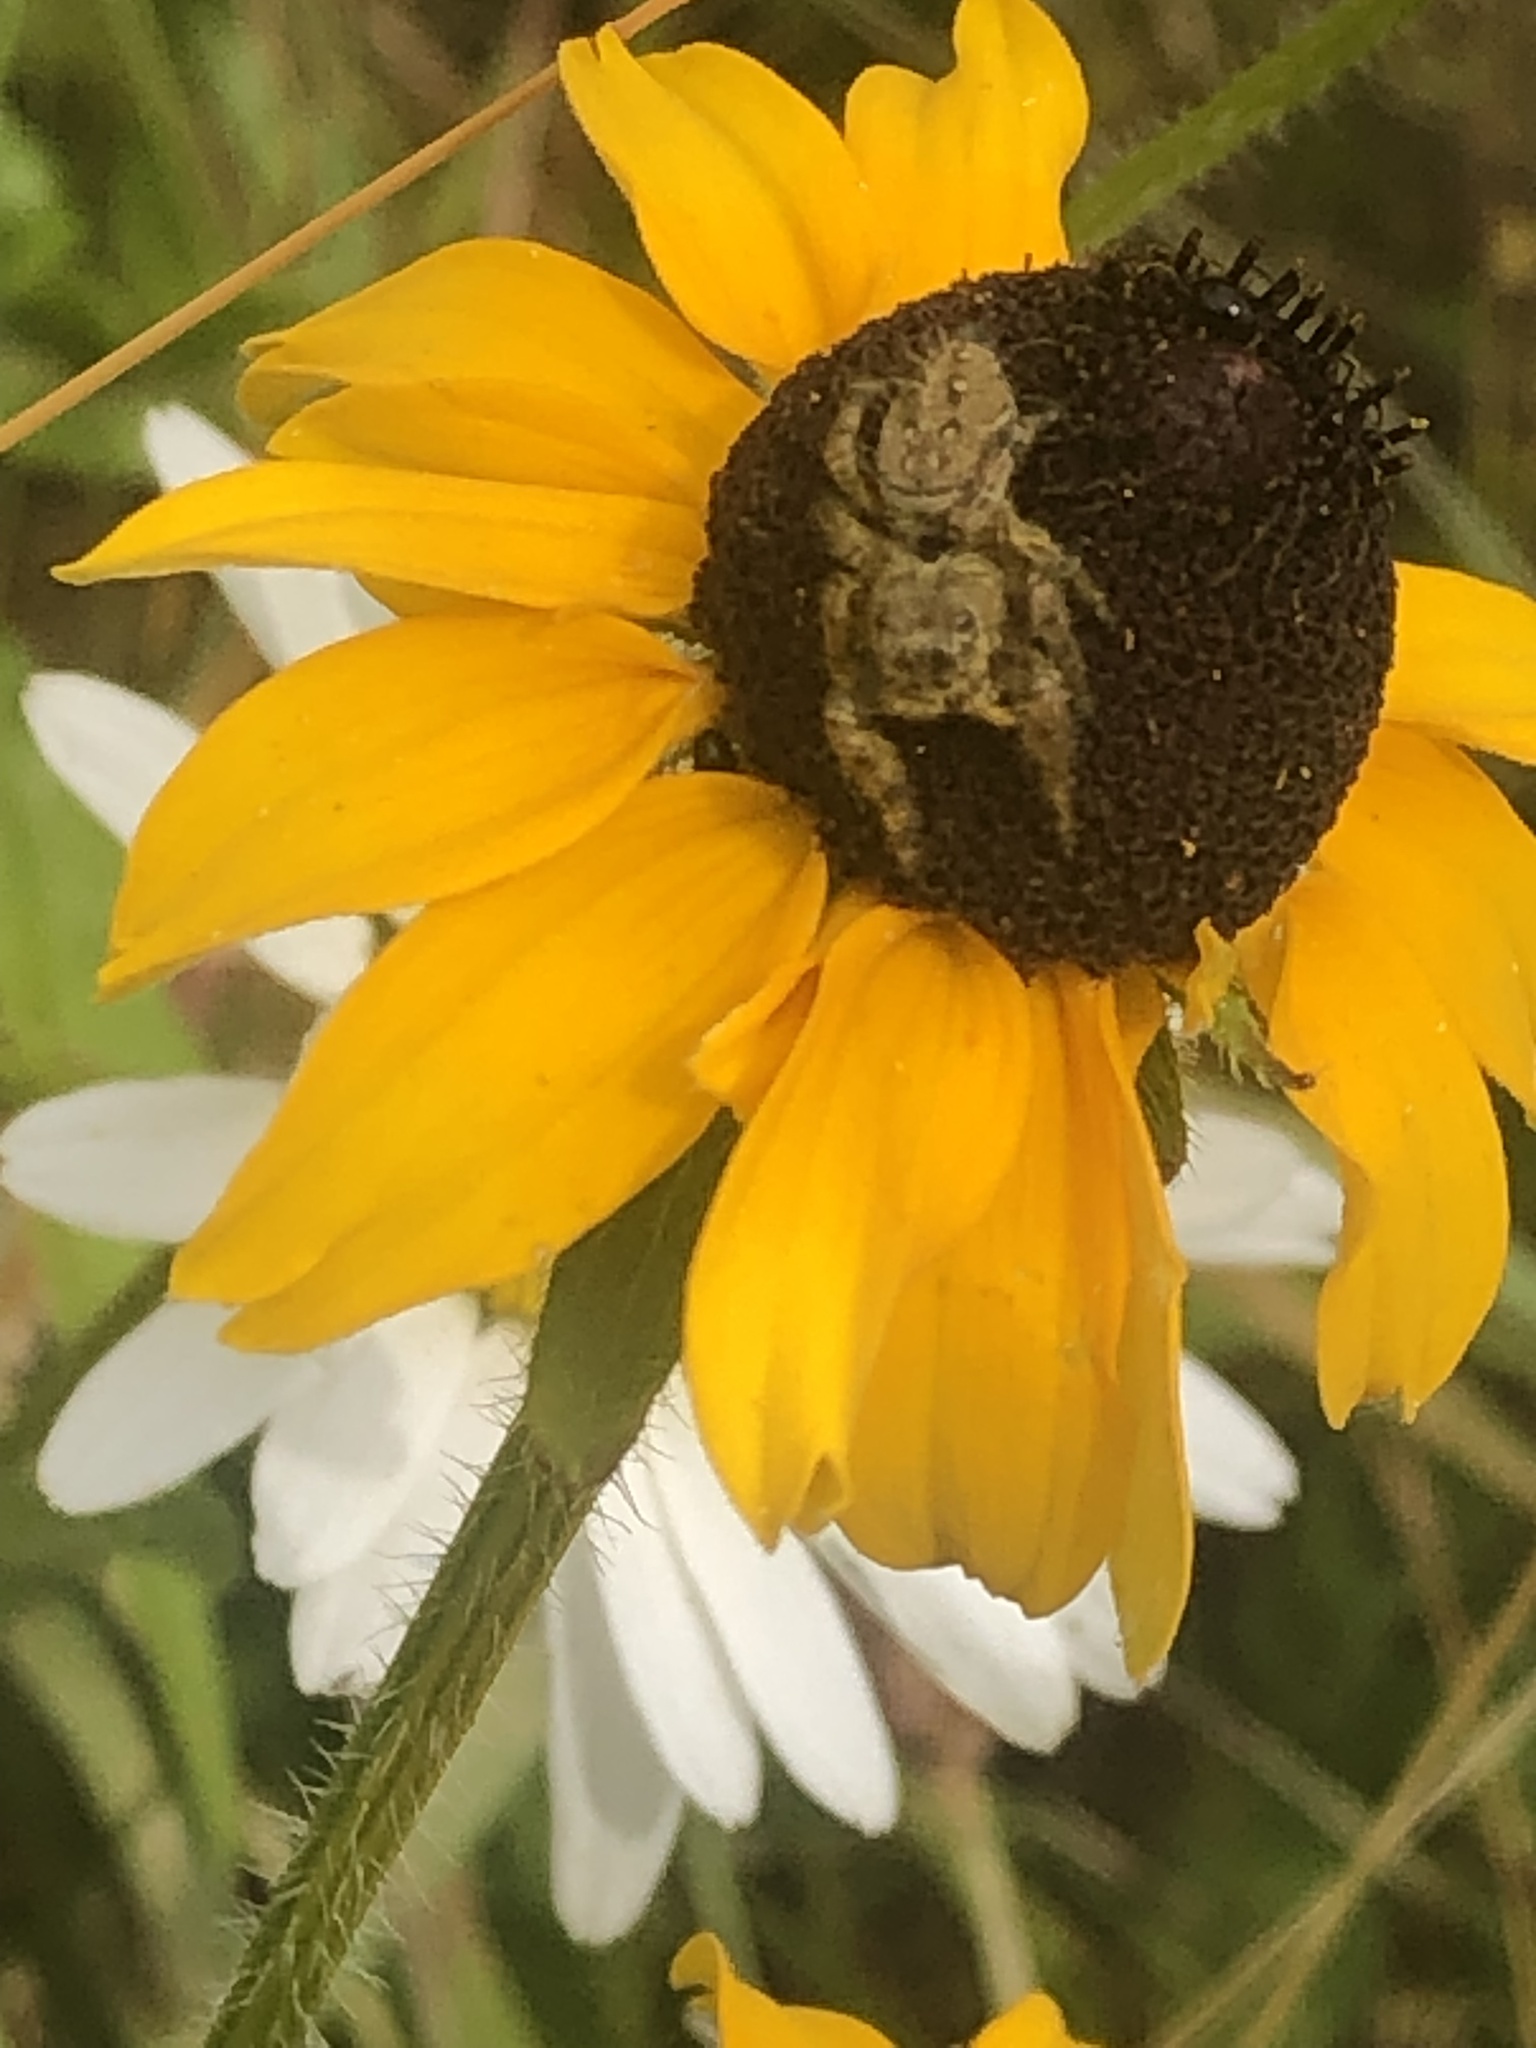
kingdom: Animalia
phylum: Arthropoda
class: Arachnida
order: Araneae
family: Salticidae
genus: Phidippus
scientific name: Phidippus clarus
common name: Brilliant jumping spider
